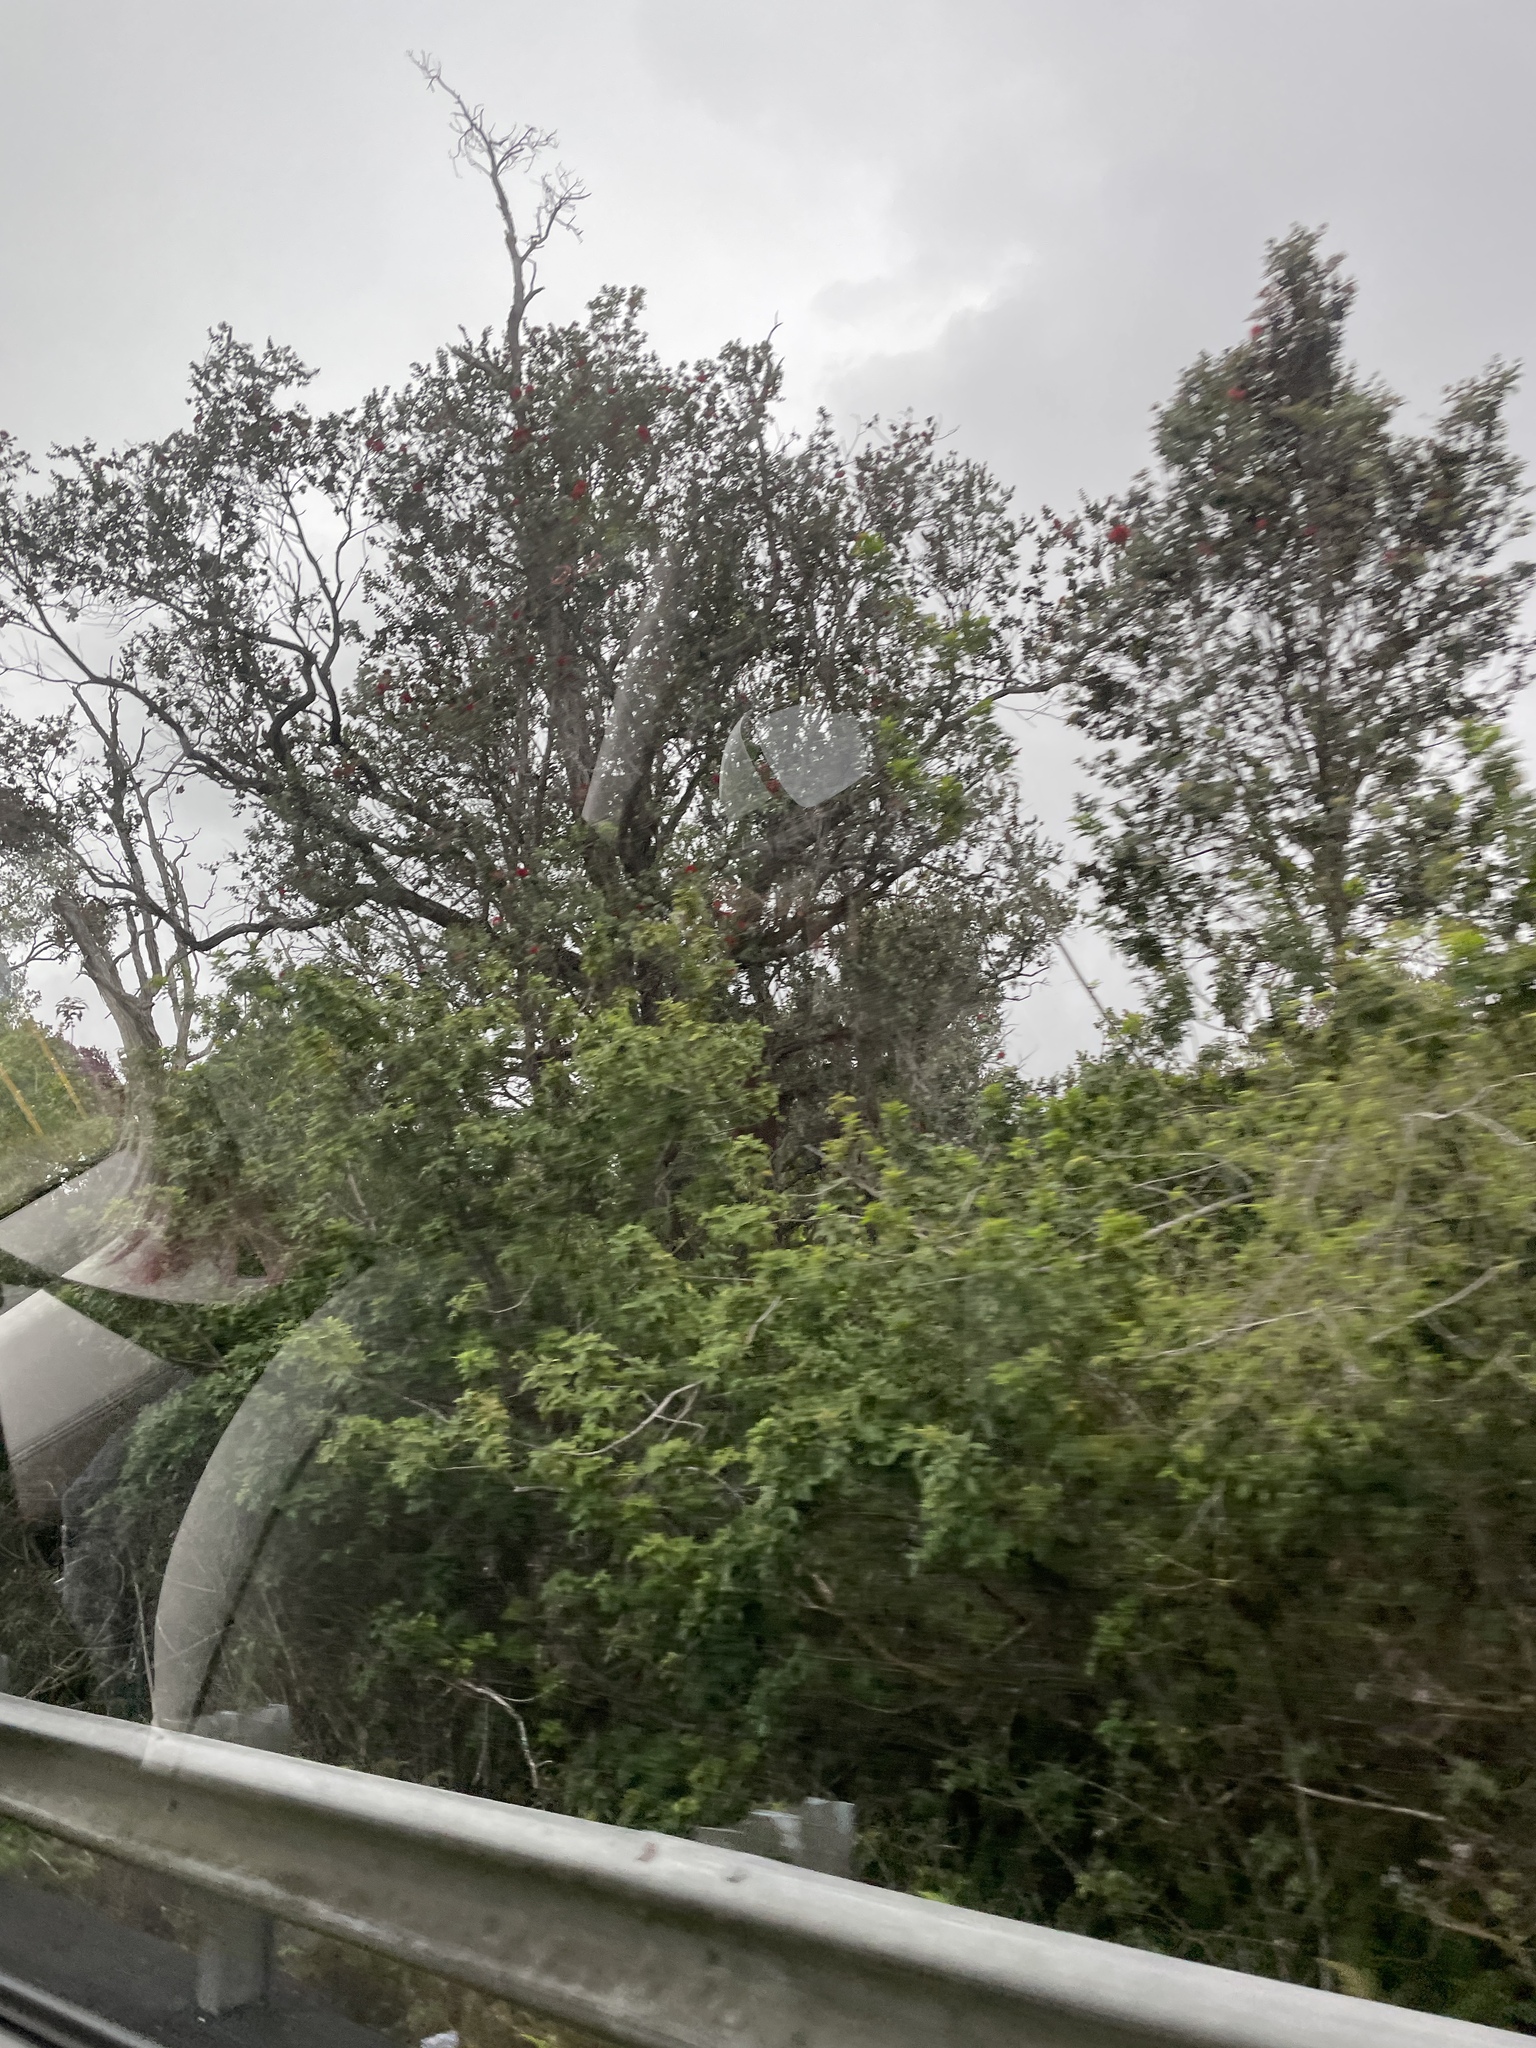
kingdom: Plantae
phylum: Tracheophyta
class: Magnoliopsida
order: Myrtales
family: Myrtaceae
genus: Metrosideros
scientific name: Metrosideros polymorpha
